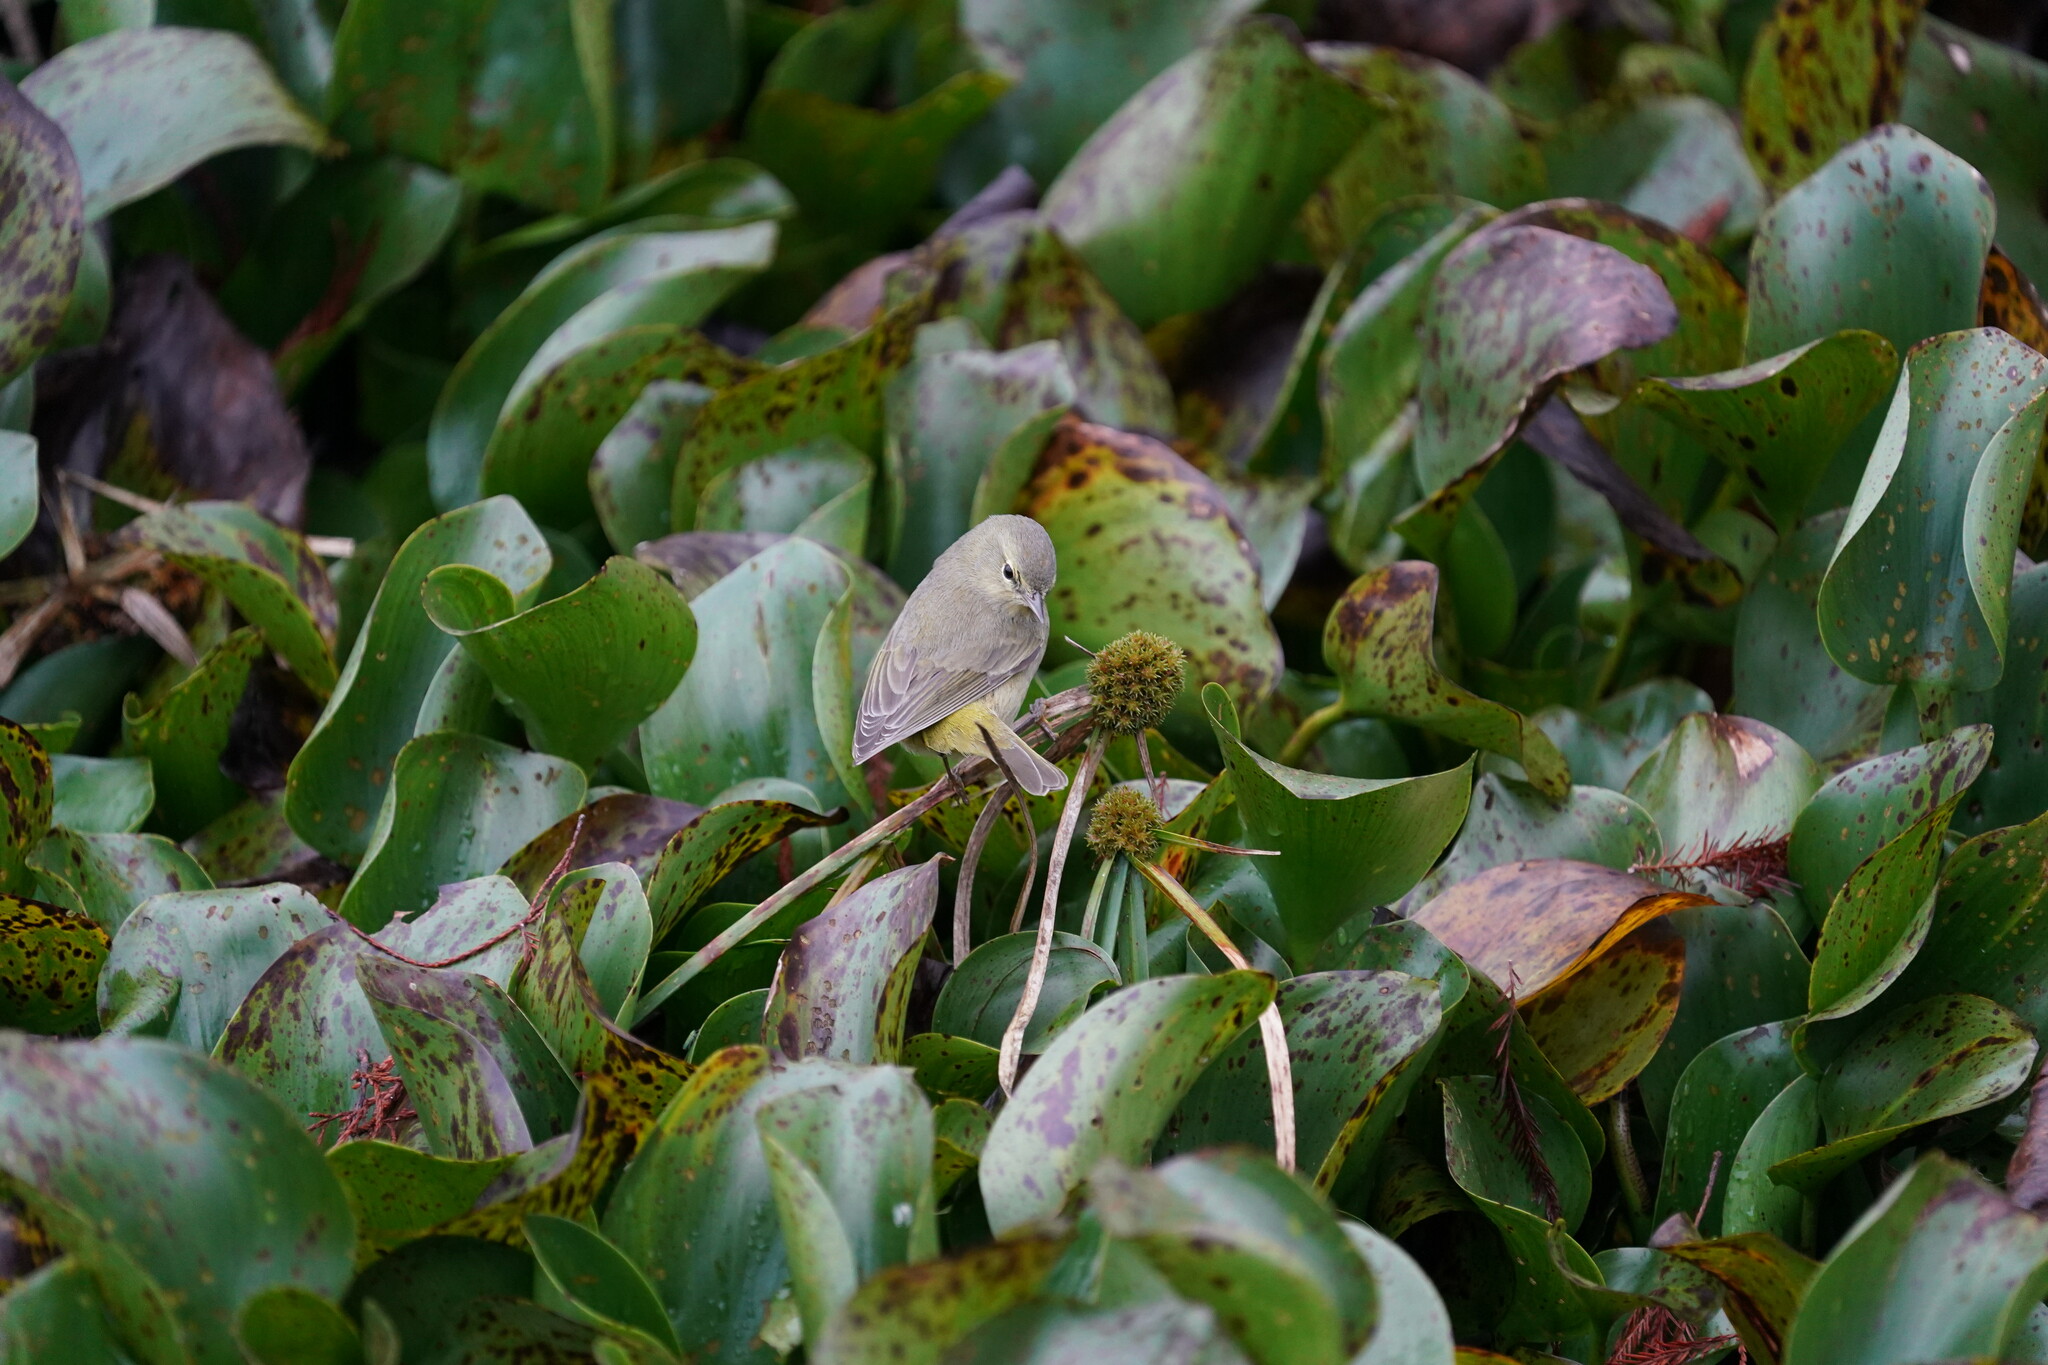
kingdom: Animalia
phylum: Chordata
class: Aves
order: Passeriformes
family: Parulidae
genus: Leiothlypis
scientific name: Leiothlypis celata
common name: Orange-crowned warbler
